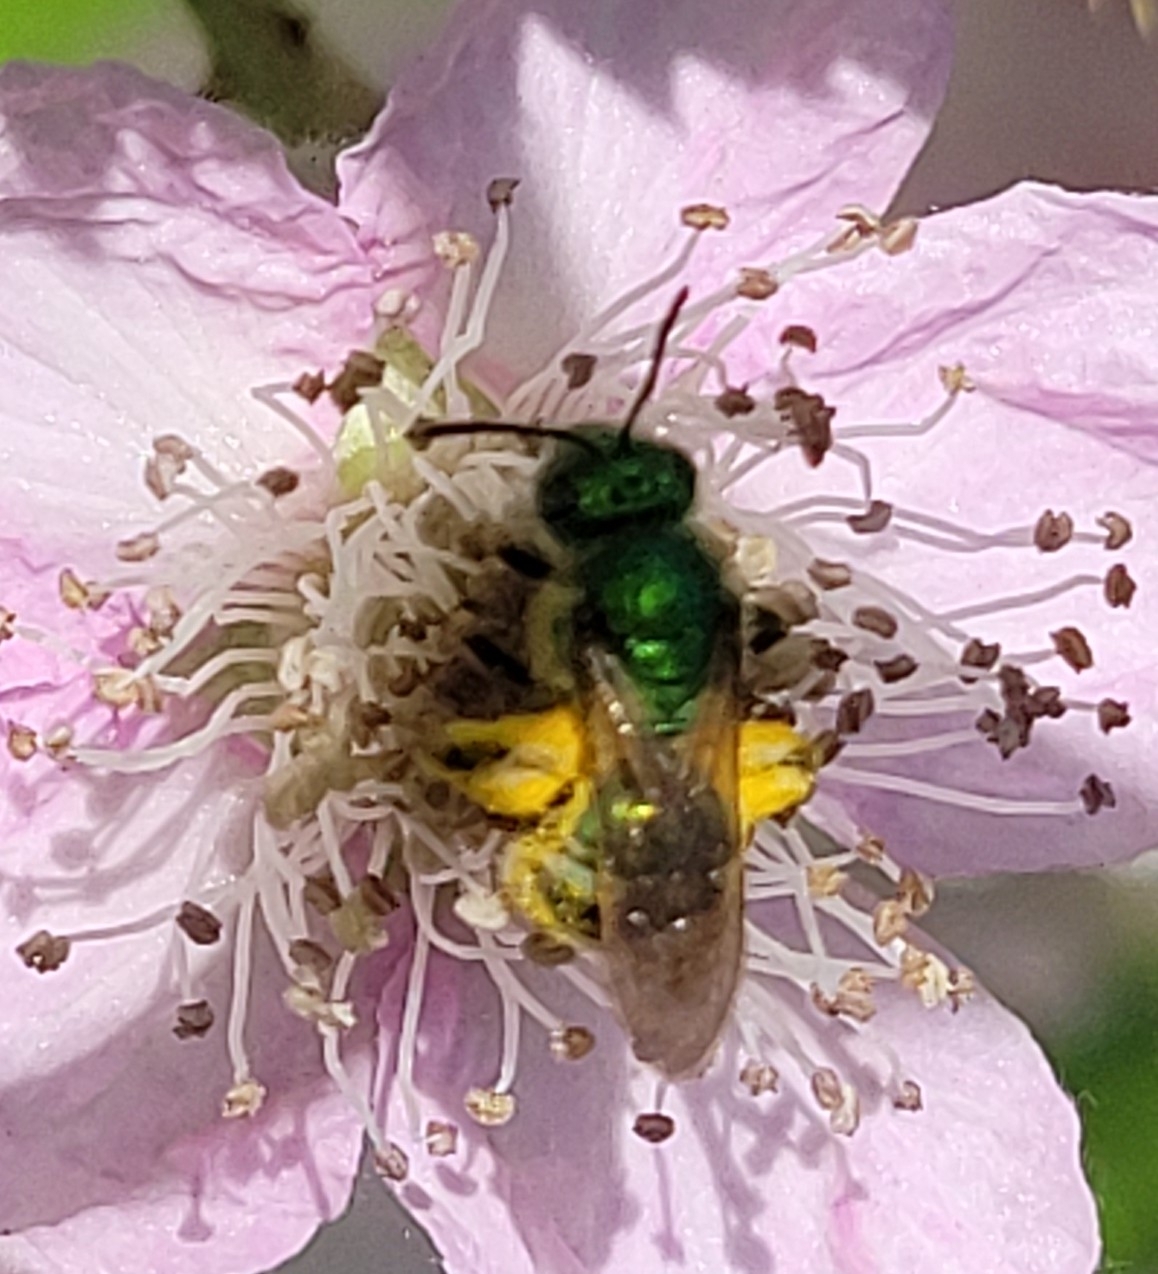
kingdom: Animalia
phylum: Arthropoda
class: Insecta
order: Hymenoptera
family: Halictidae
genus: Agapostemon
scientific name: Agapostemon texanus
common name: Texas striped sweat bee
